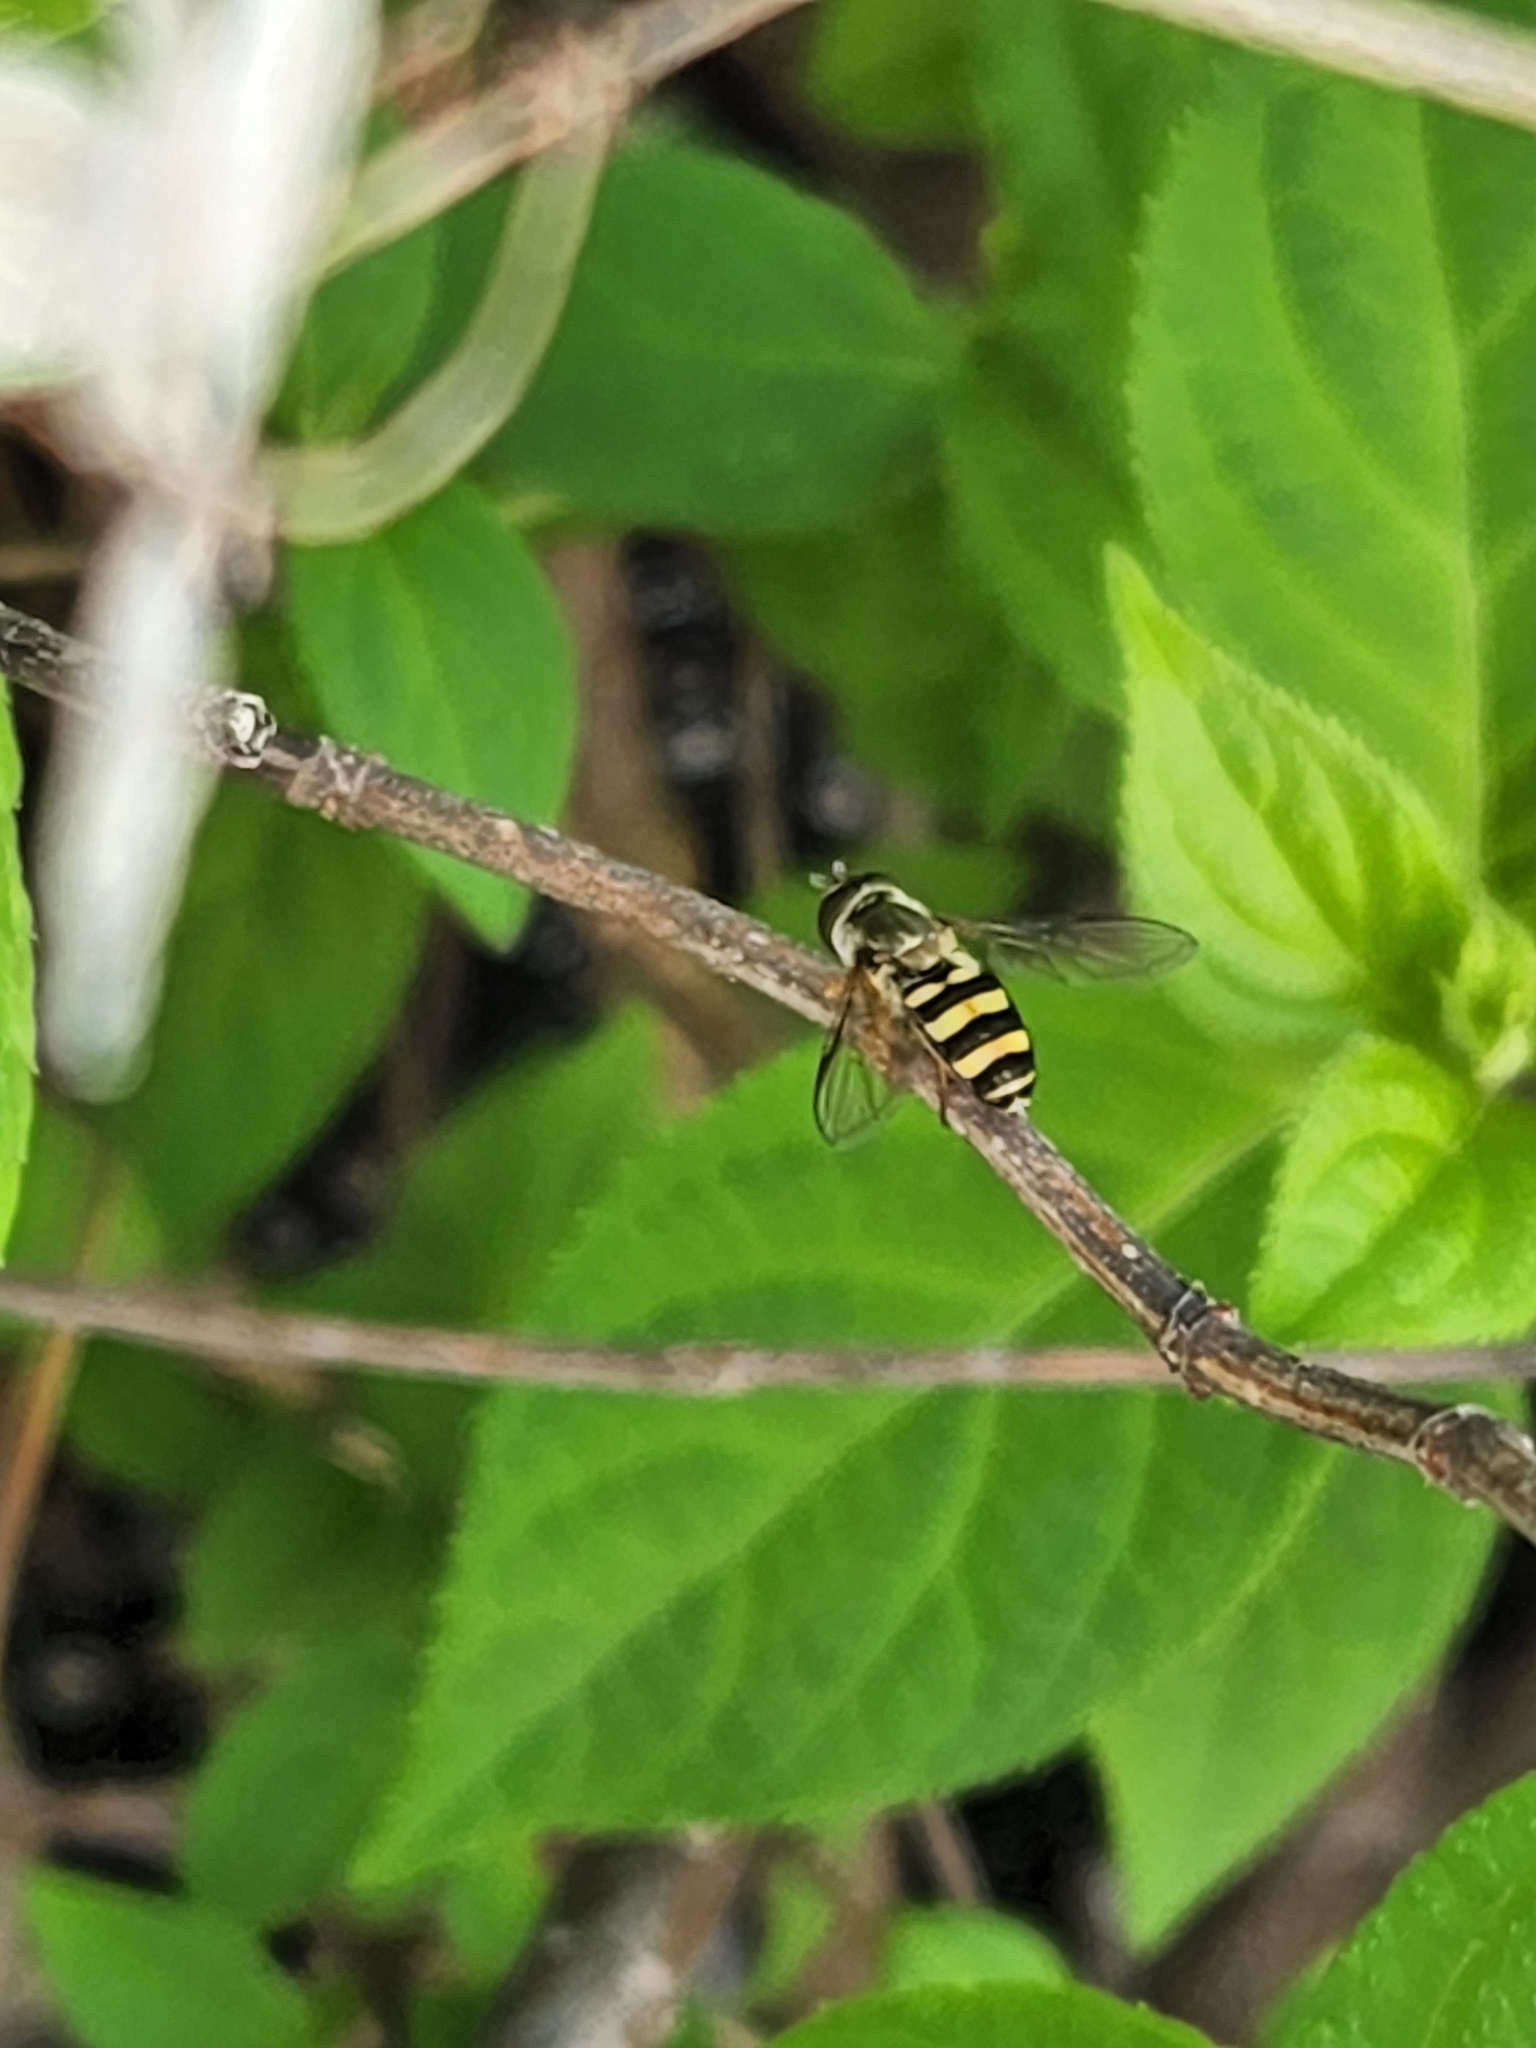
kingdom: Animalia
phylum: Arthropoda
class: Insecta
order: Diptera
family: Syrphidae
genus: Eupeodes
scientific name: Eupeodes
